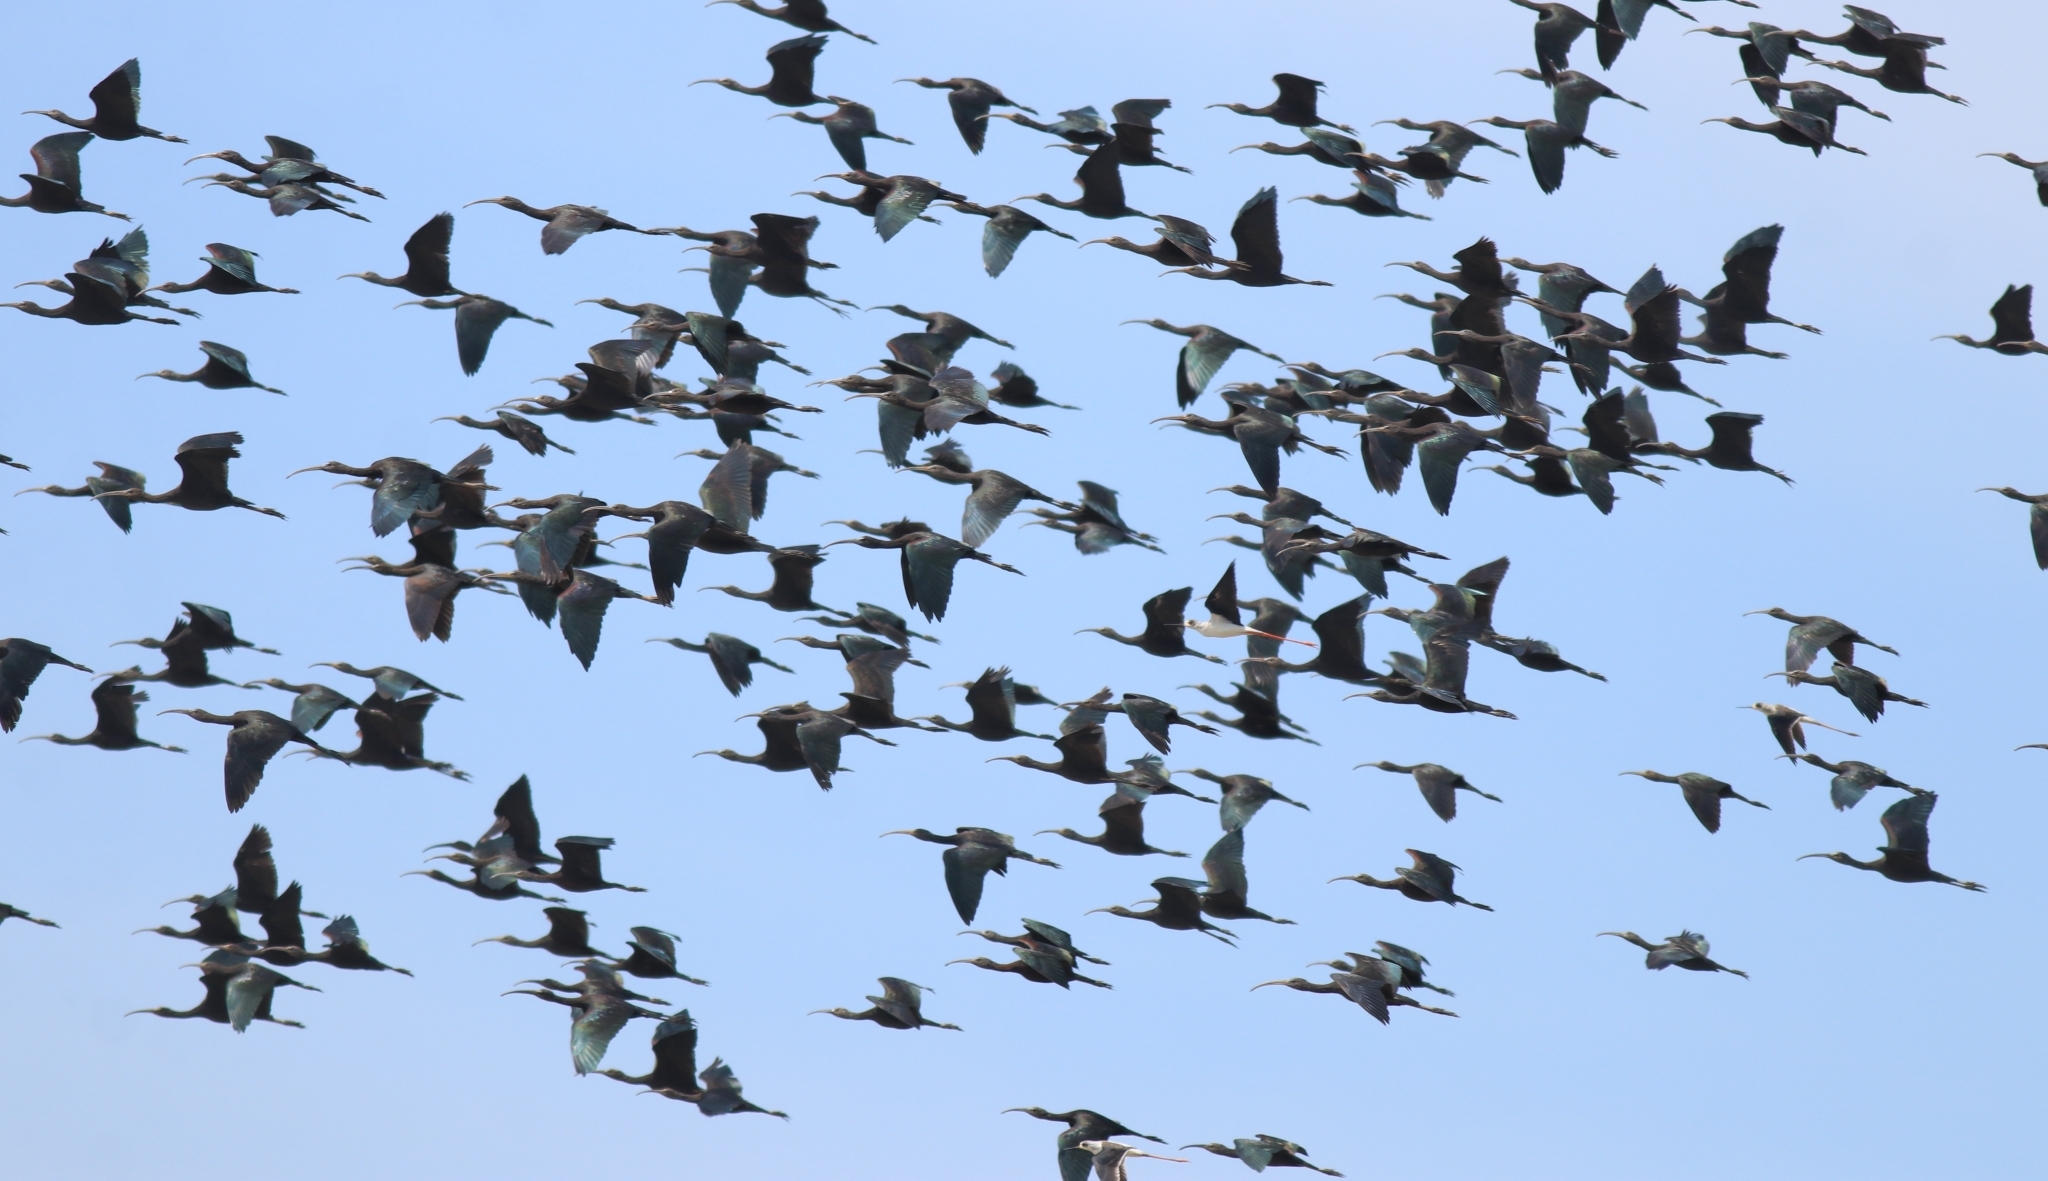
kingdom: Animalia
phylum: Chordata
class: Aves
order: Pelecaniformes
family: Threskiornithidae
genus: Plegadis
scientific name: Plegadis falcinellus
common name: Glossy ibis
